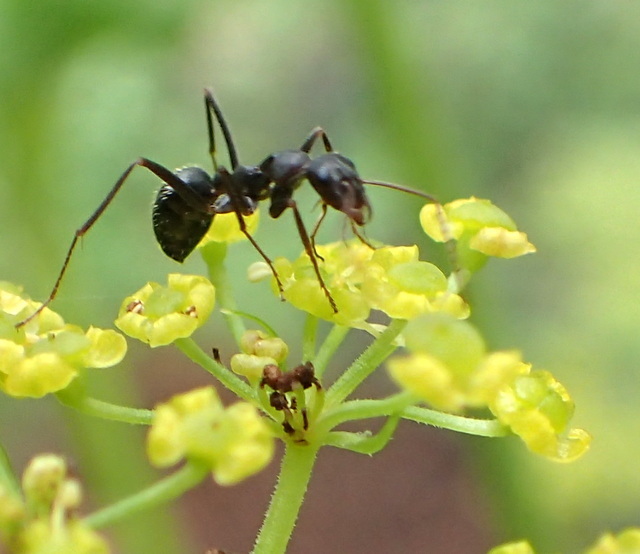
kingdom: Animalia
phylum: Arthropoda
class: Insecta
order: Hymenoptera
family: Formicidae
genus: Formica
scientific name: Formica archboldi
